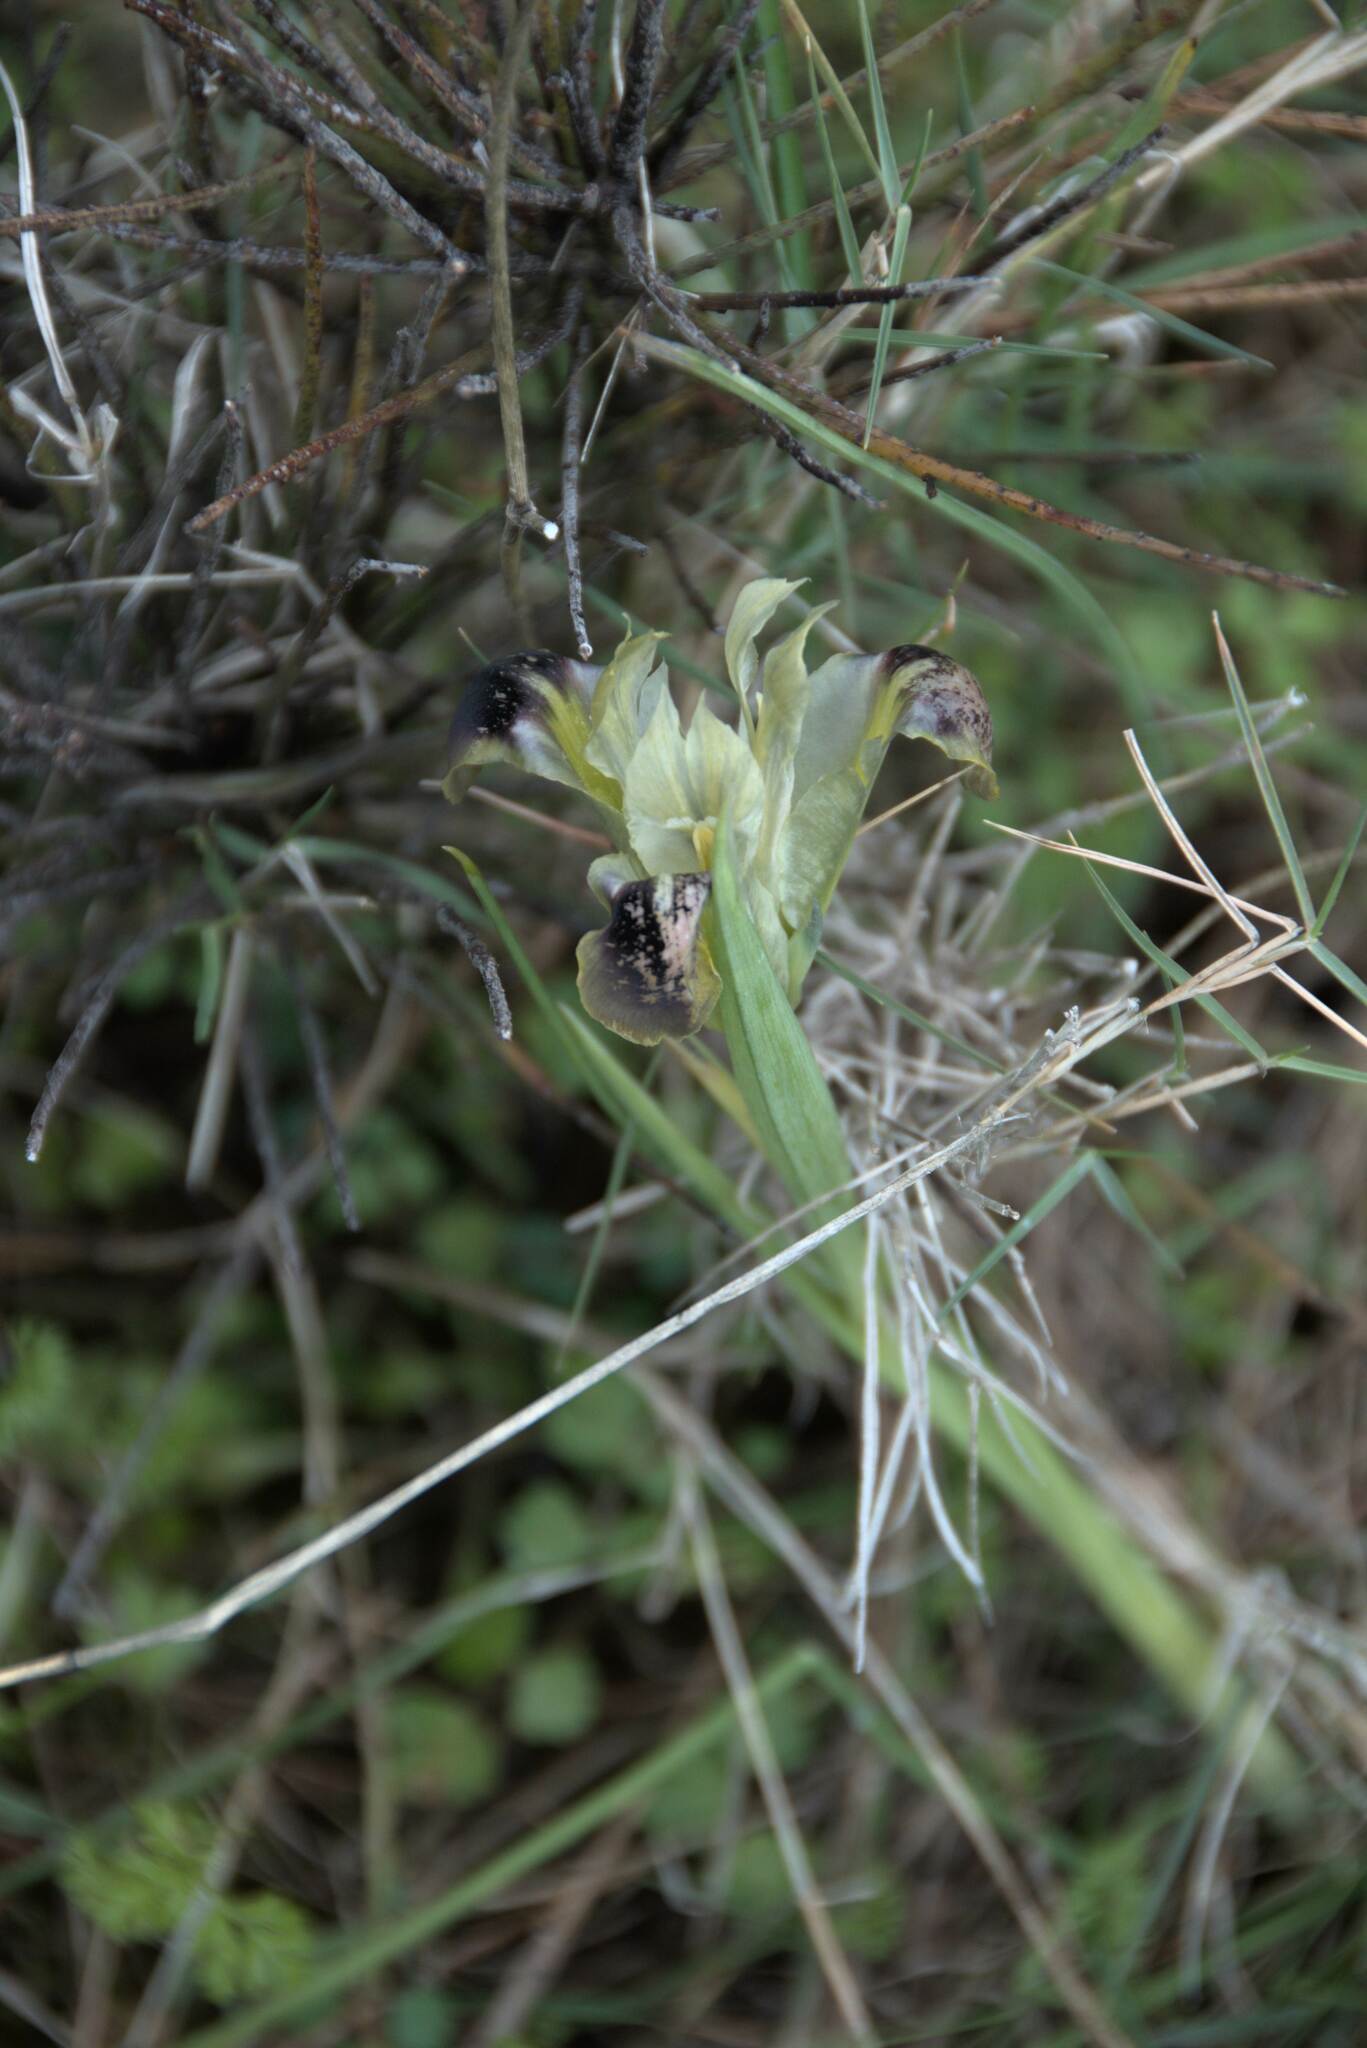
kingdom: Plantae
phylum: Tracheophyta
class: Liliopsida
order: Asparagales
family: Iridaceae
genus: Iris
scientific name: Iris tuberosa
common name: Snake's-head iris
